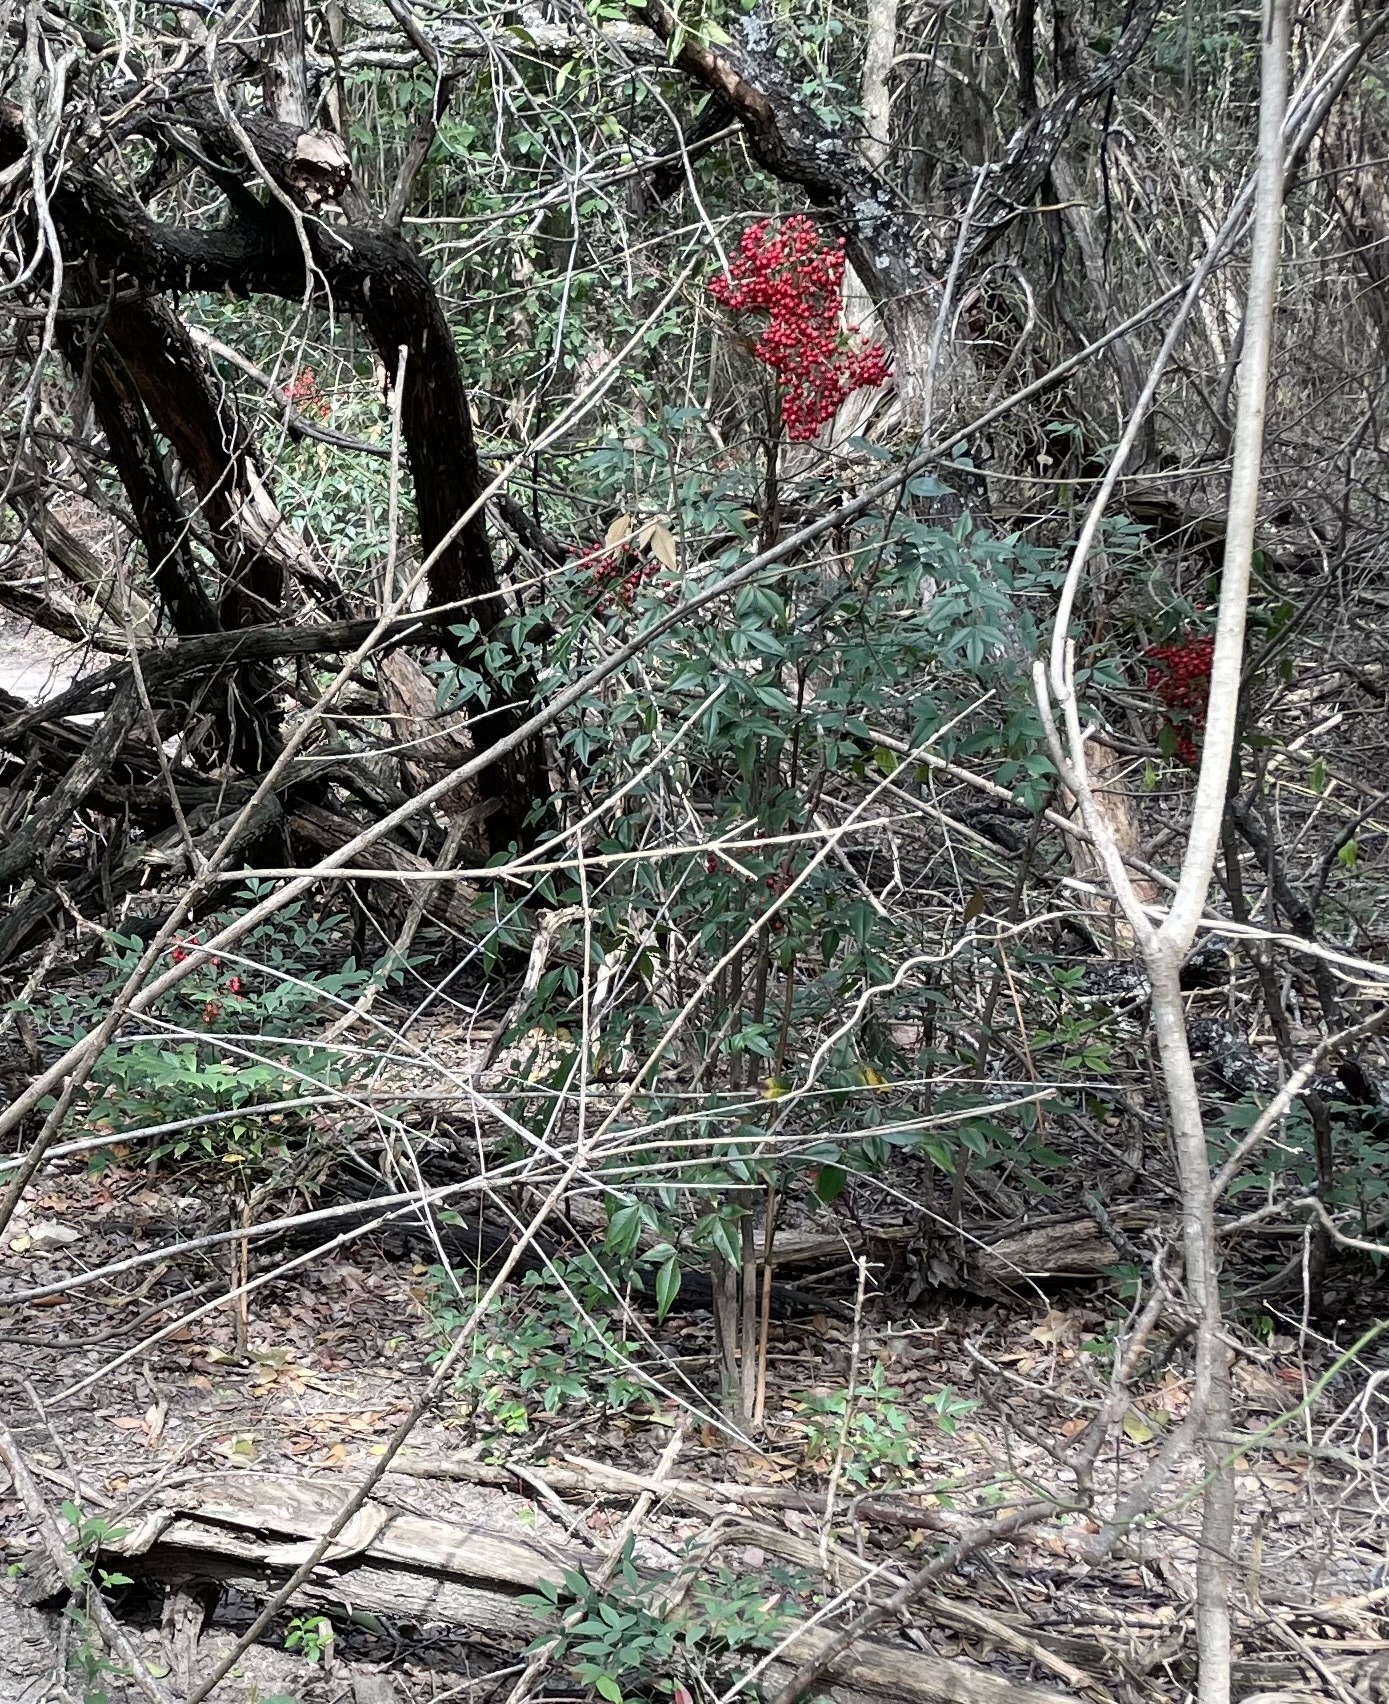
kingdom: Plantae
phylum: Tracheophyta
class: Magnoliopsida
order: Ranunculales
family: Berberidaceae
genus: Nandina
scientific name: Nandina domestica
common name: Sacred bamboo
